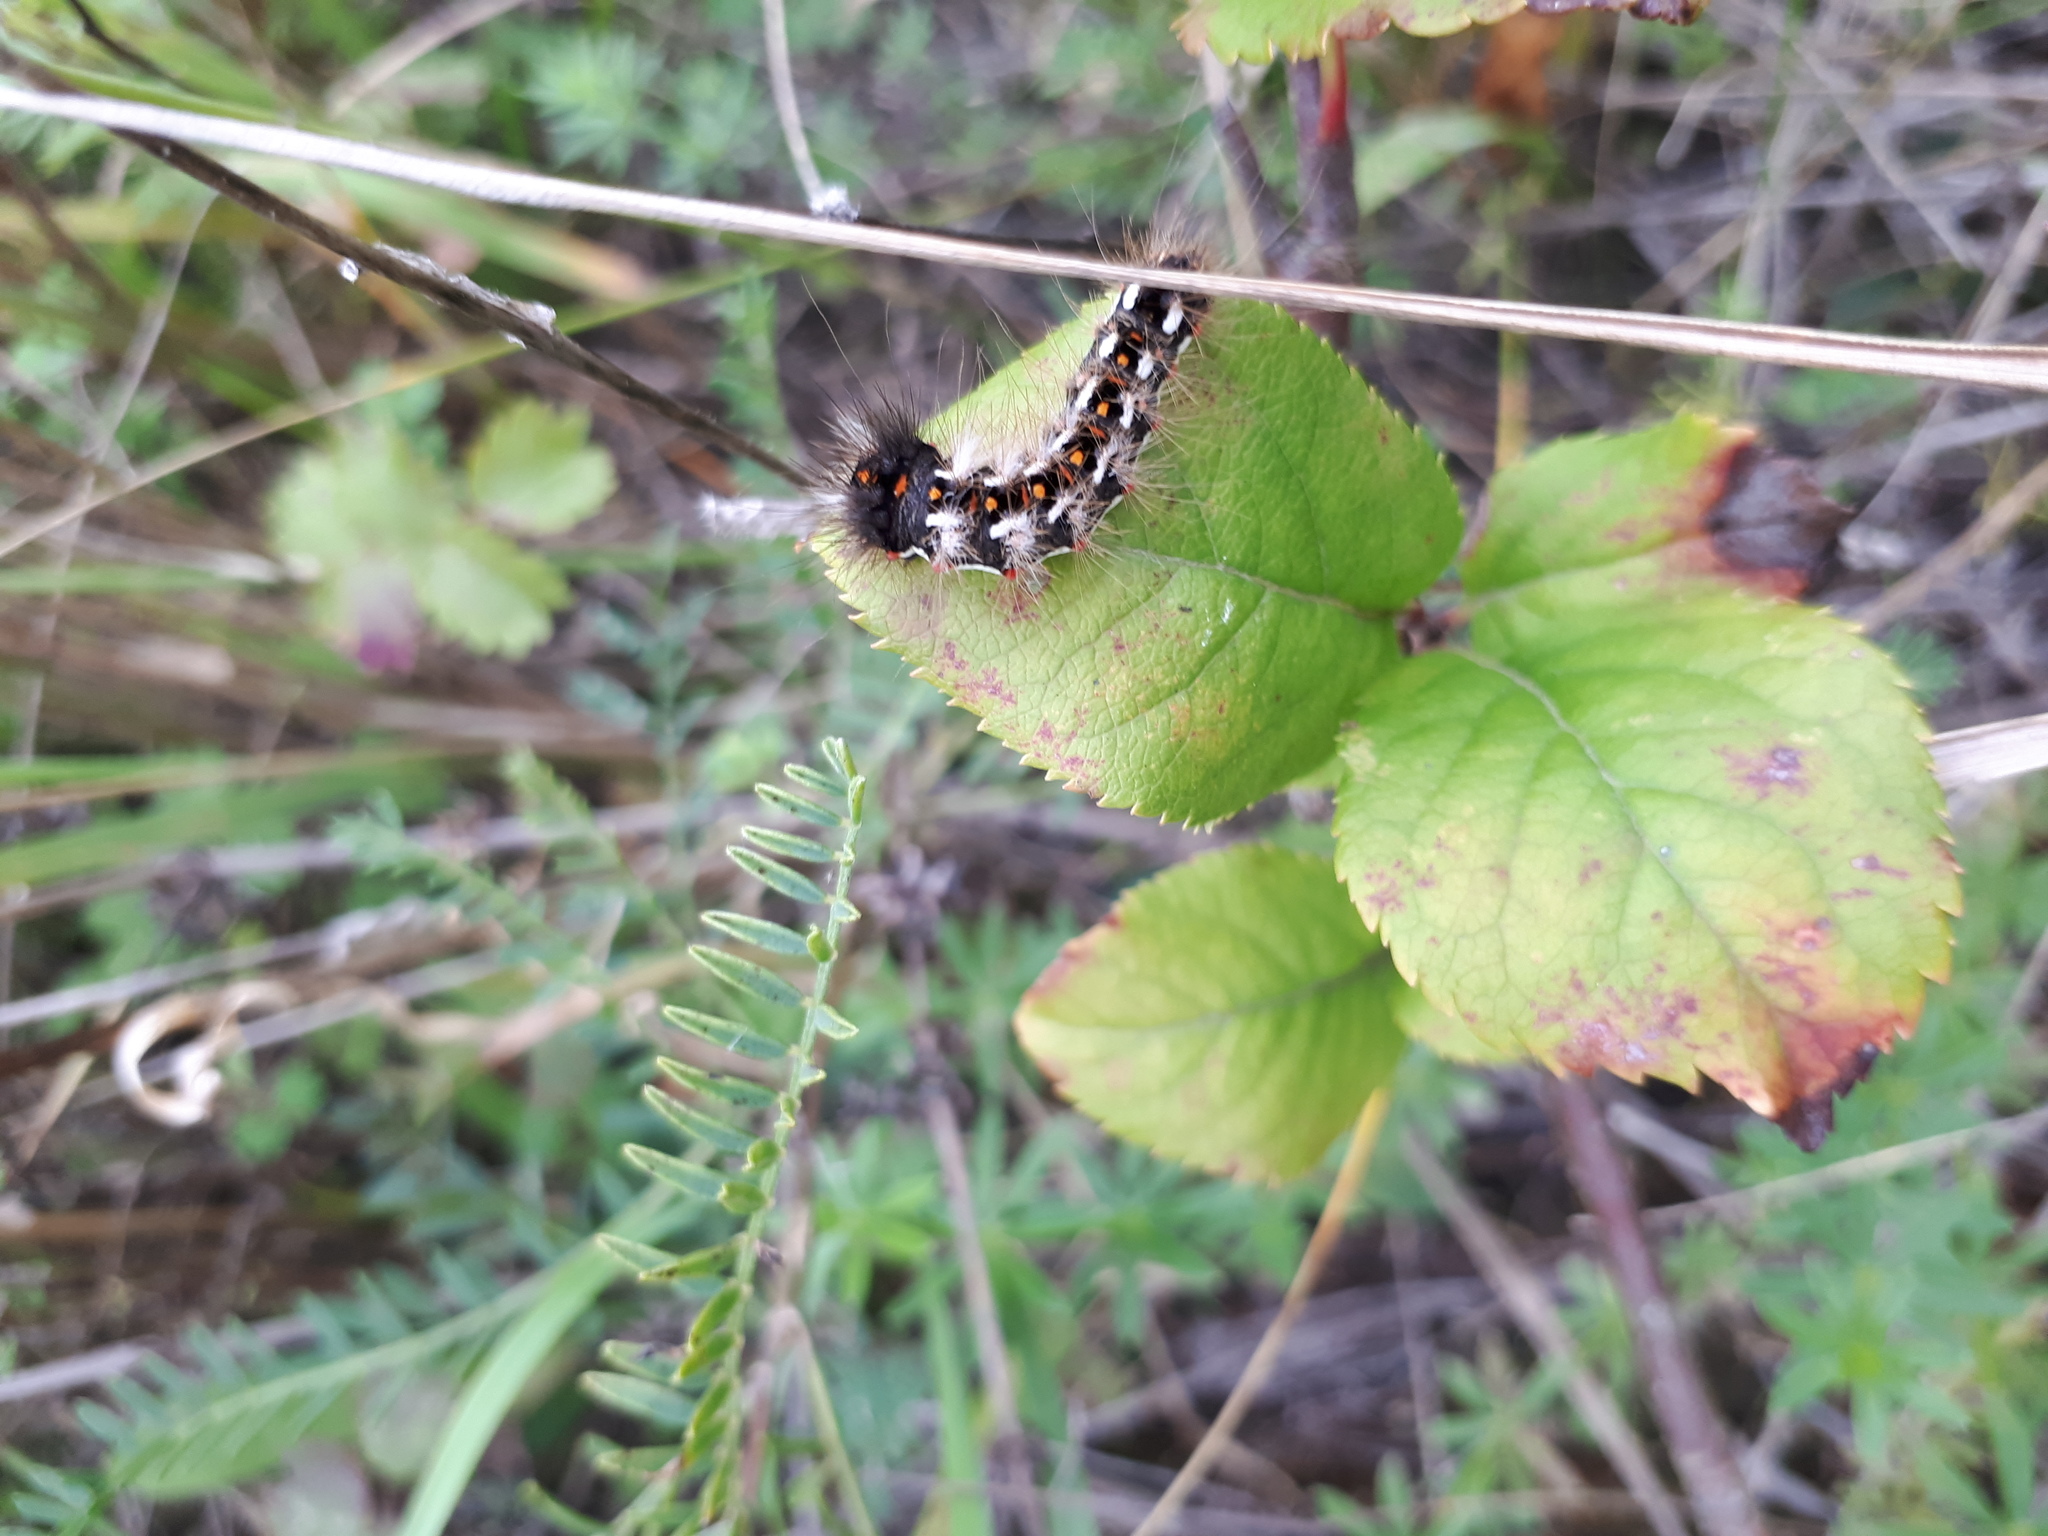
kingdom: Animalia
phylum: Arthropoda
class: Insecta
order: Lepidoptera
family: Noctuidae
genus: Acronicta
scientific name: Acronicta rumicis
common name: Knot grass
